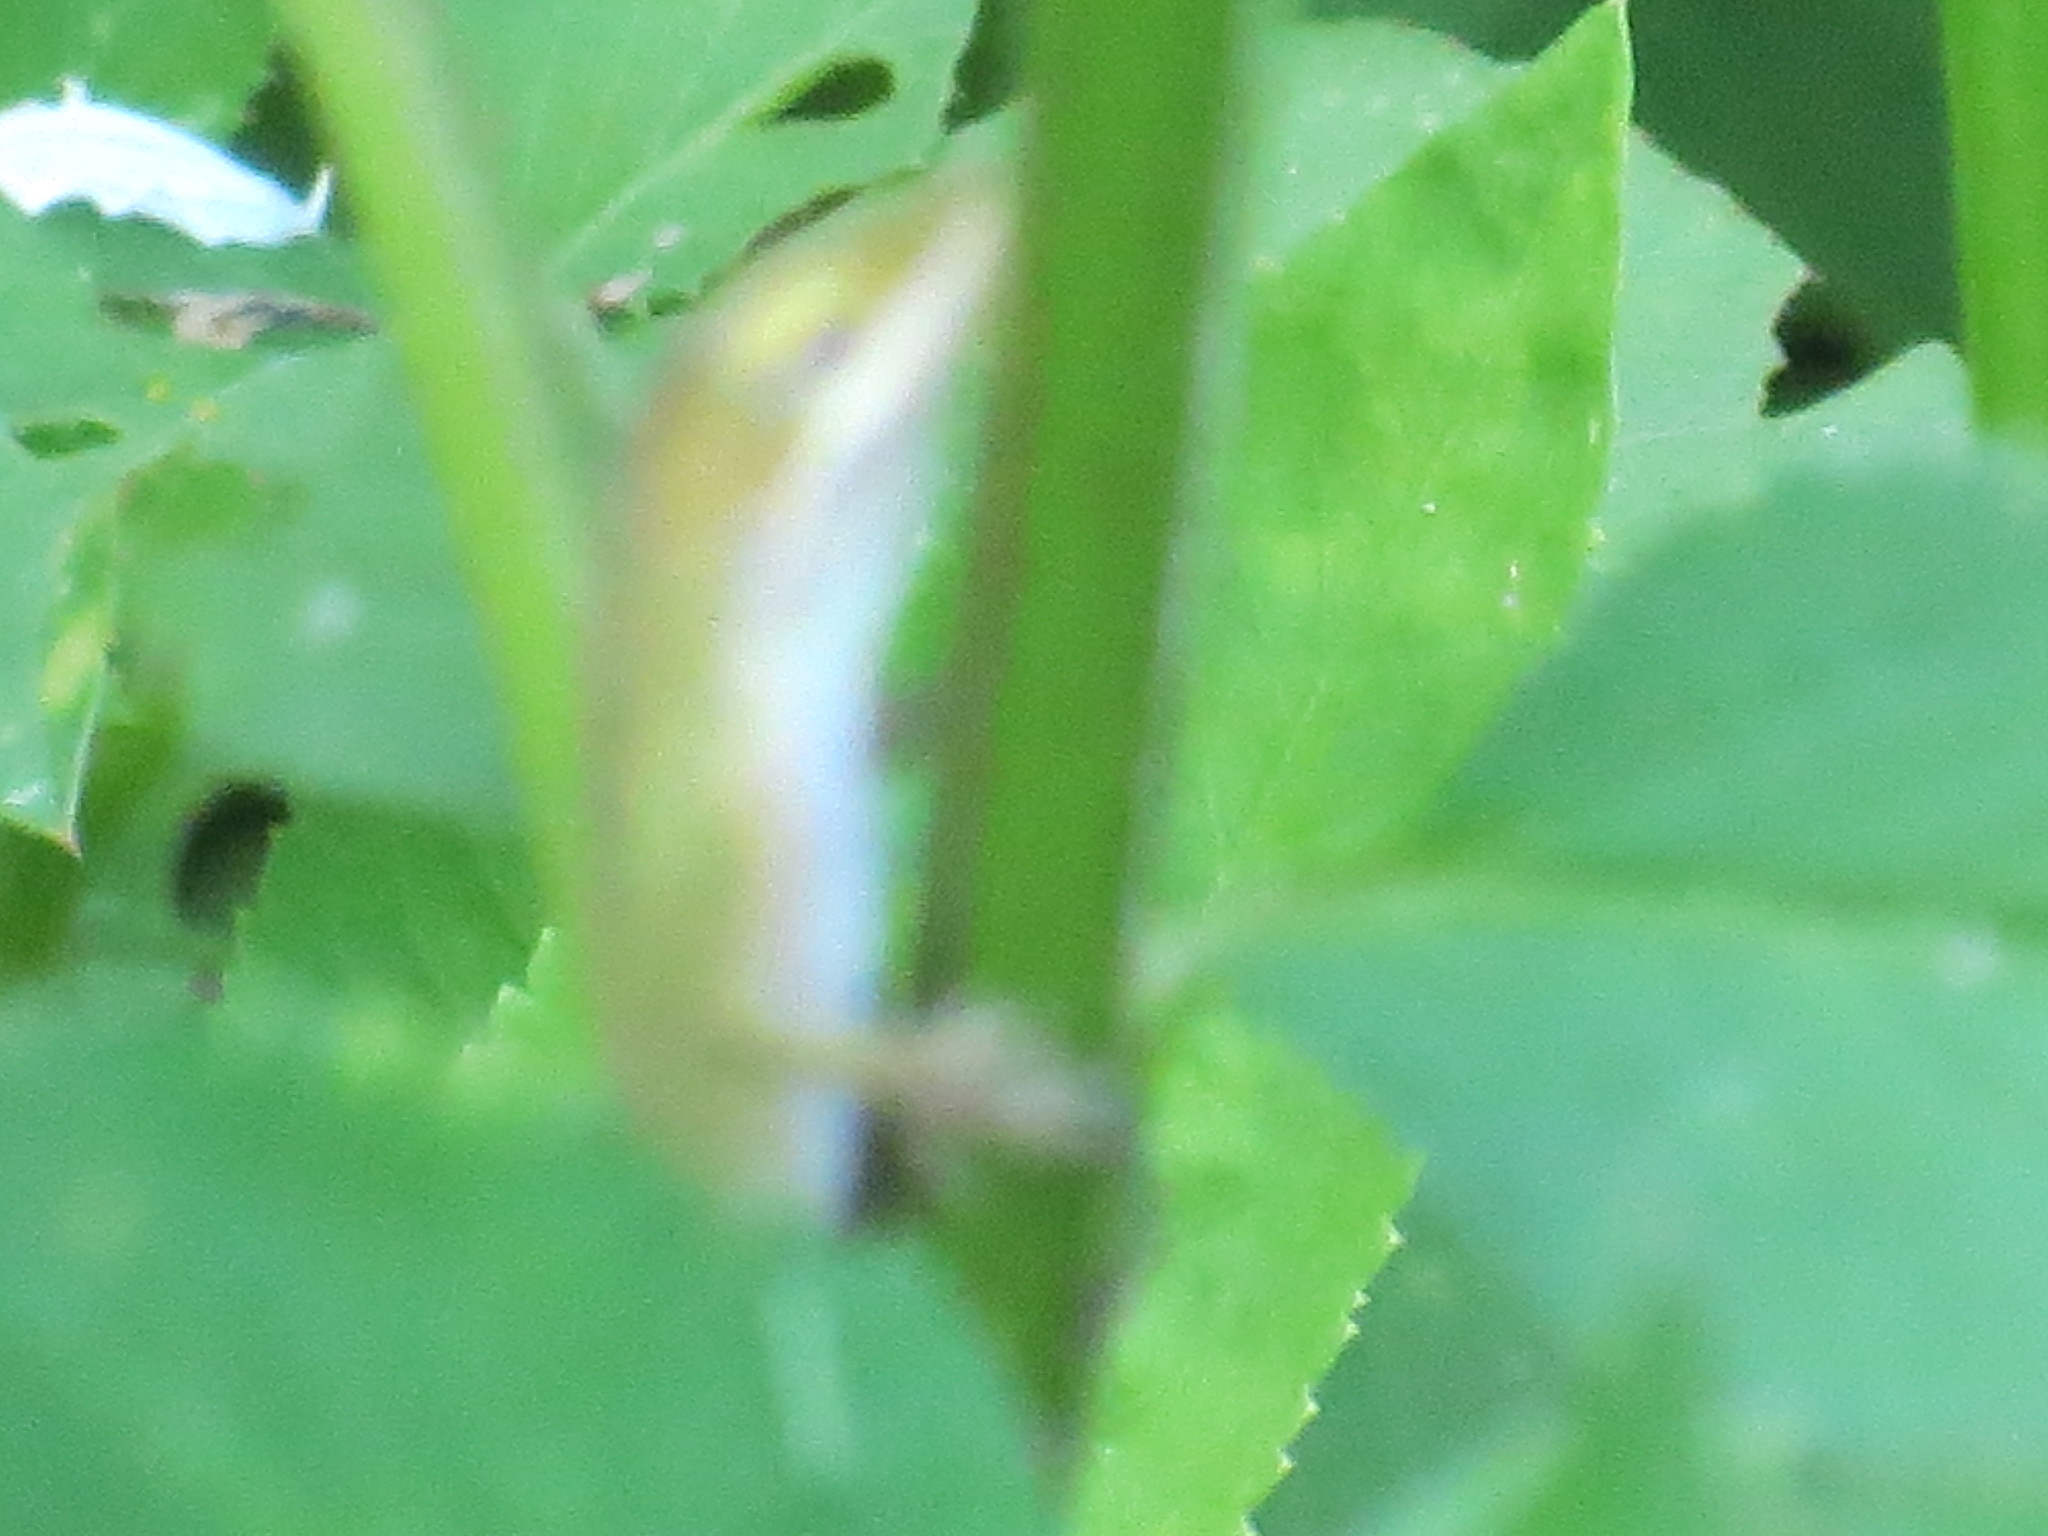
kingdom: Animalia
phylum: Chordata
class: Squamata
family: Dactyloidae
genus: Anolis
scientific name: Anolis carolinensis
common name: Green anole
